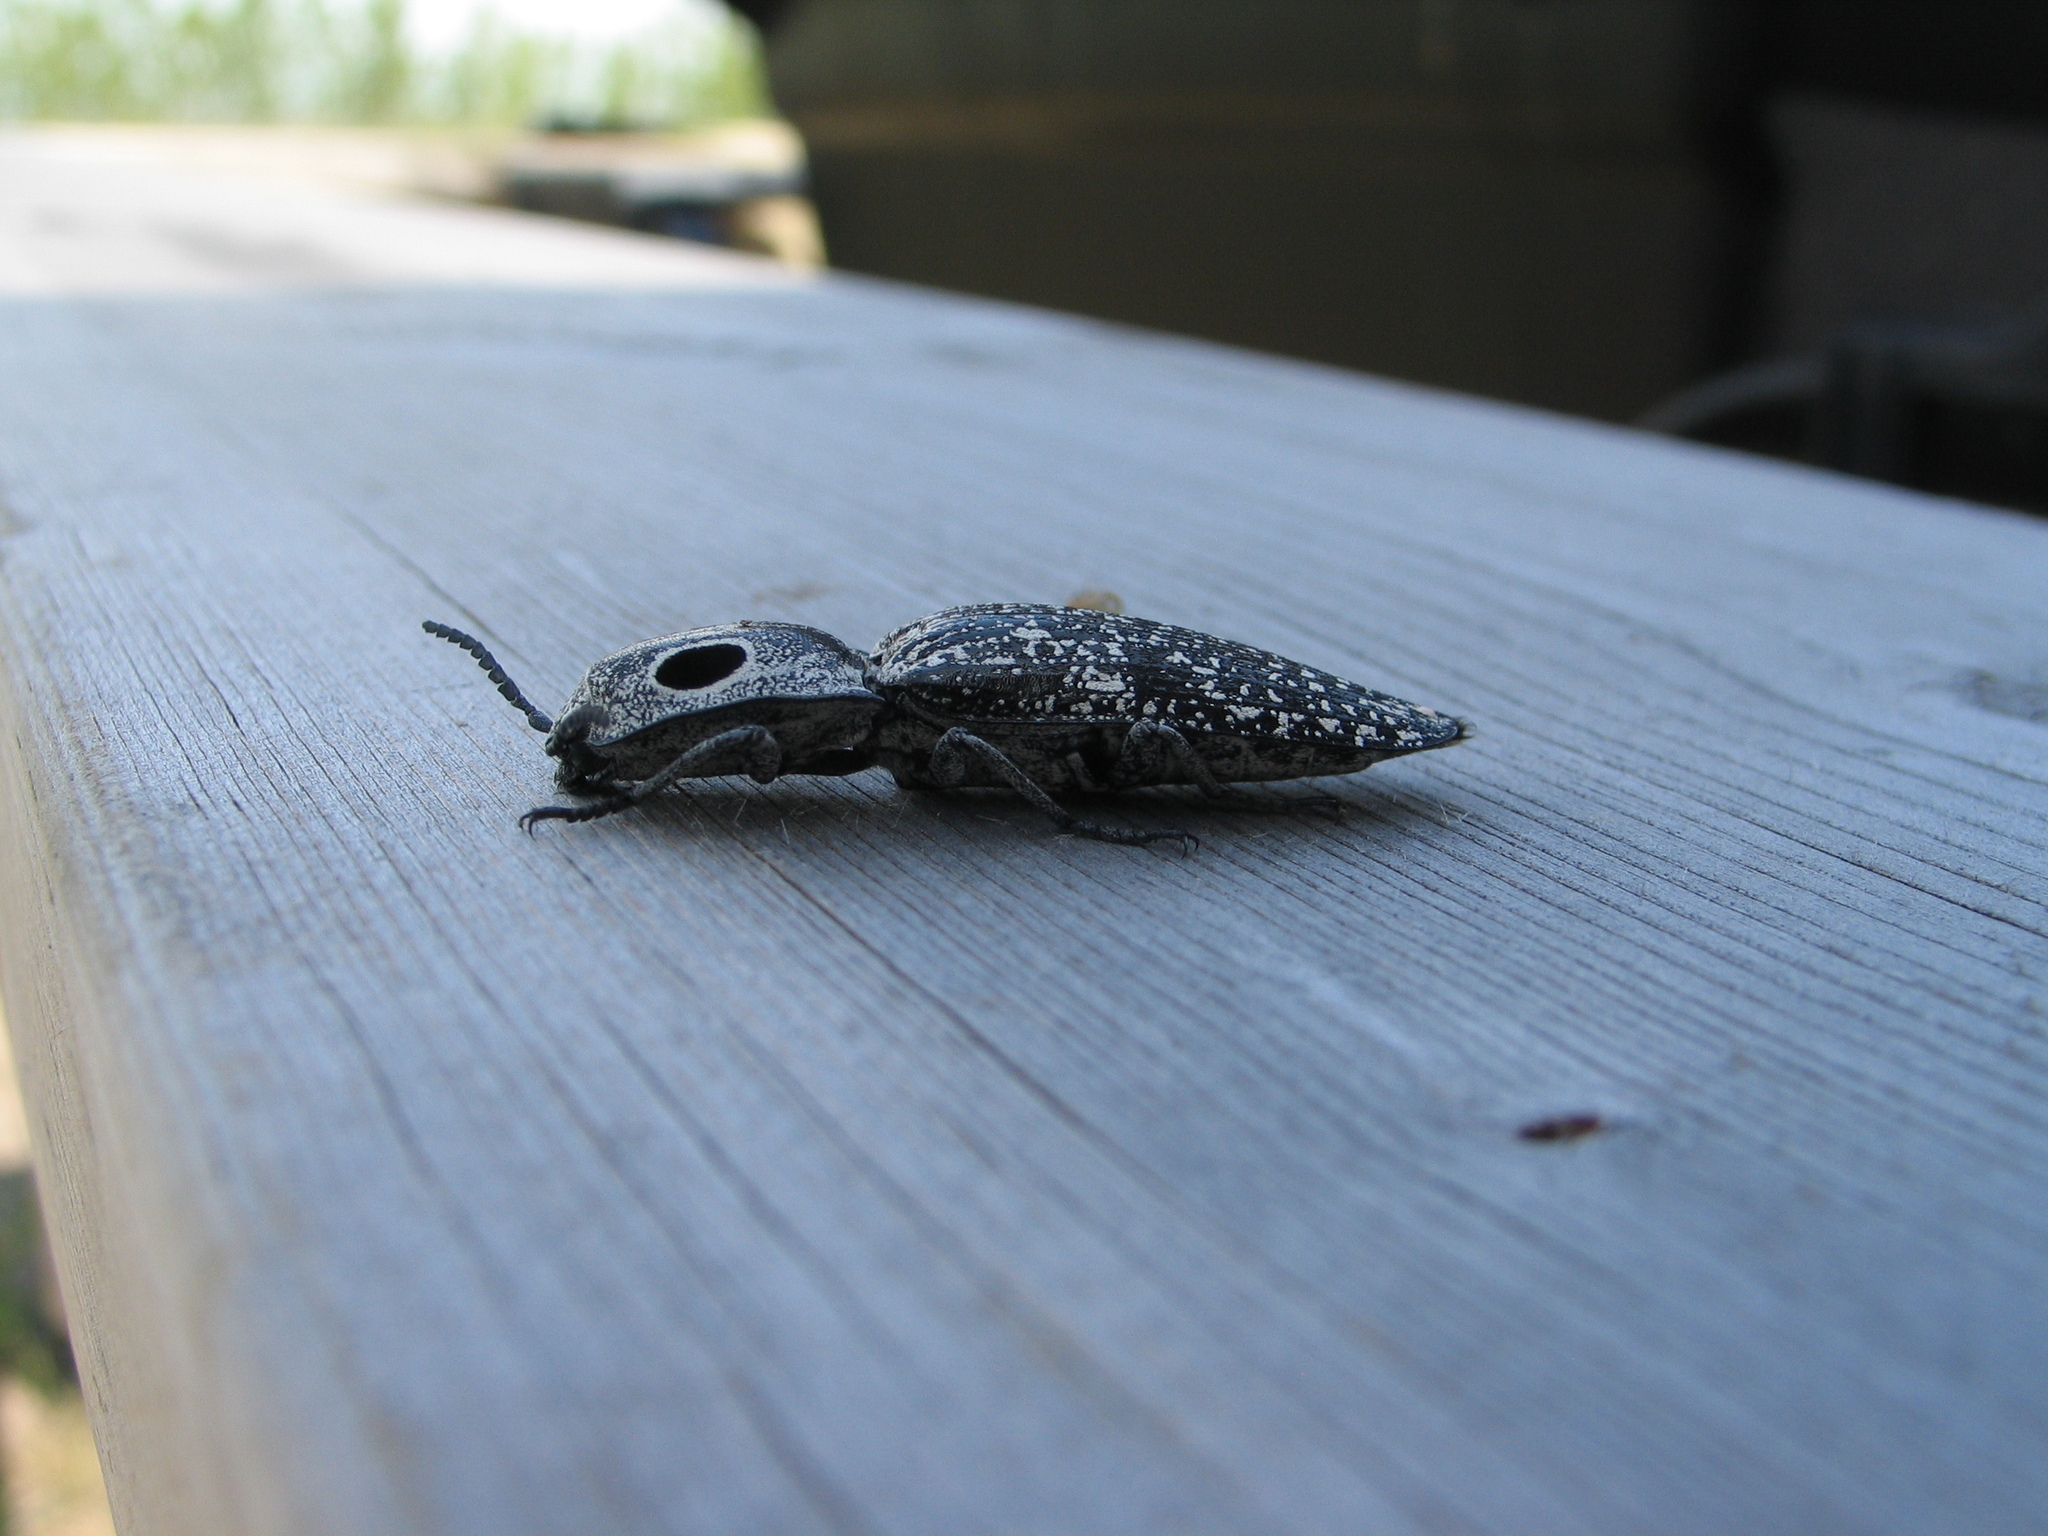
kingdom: Animalia
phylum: Arthropoda
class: Insecta
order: Coleoptera
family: Elateridae
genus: Alaus
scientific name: Alaus oculatus
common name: Eastern eyed click beetle
